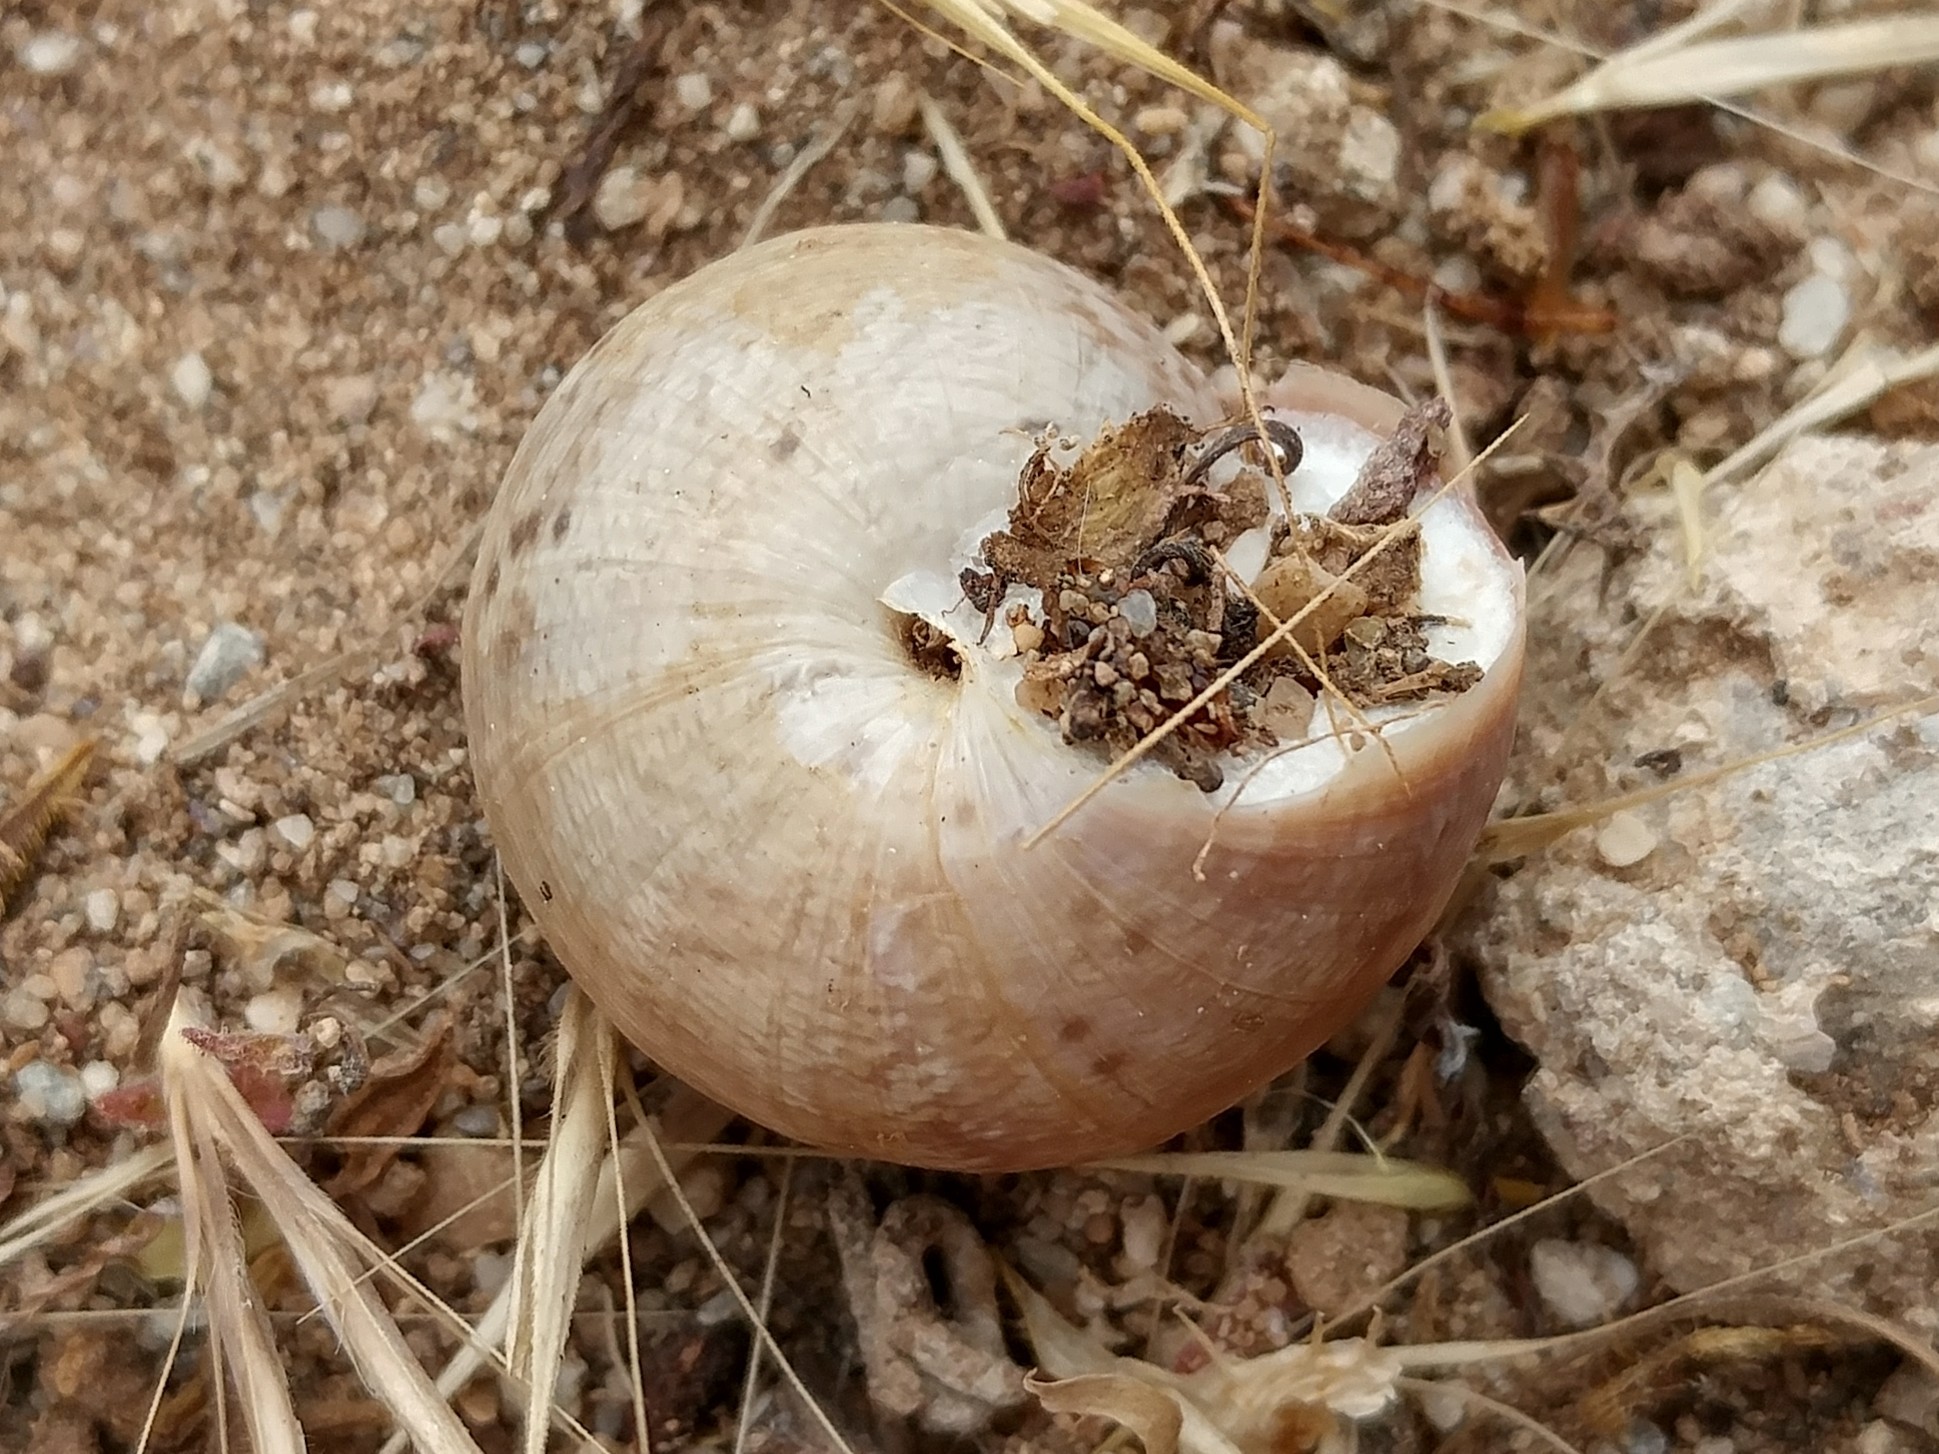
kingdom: Animalia
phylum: Mollusca
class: Gastropoda
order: Stylommatophora
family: Xanthonychidae
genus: Xerarionta
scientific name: Xerarionta tryoni
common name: Bicolor cactus snail
